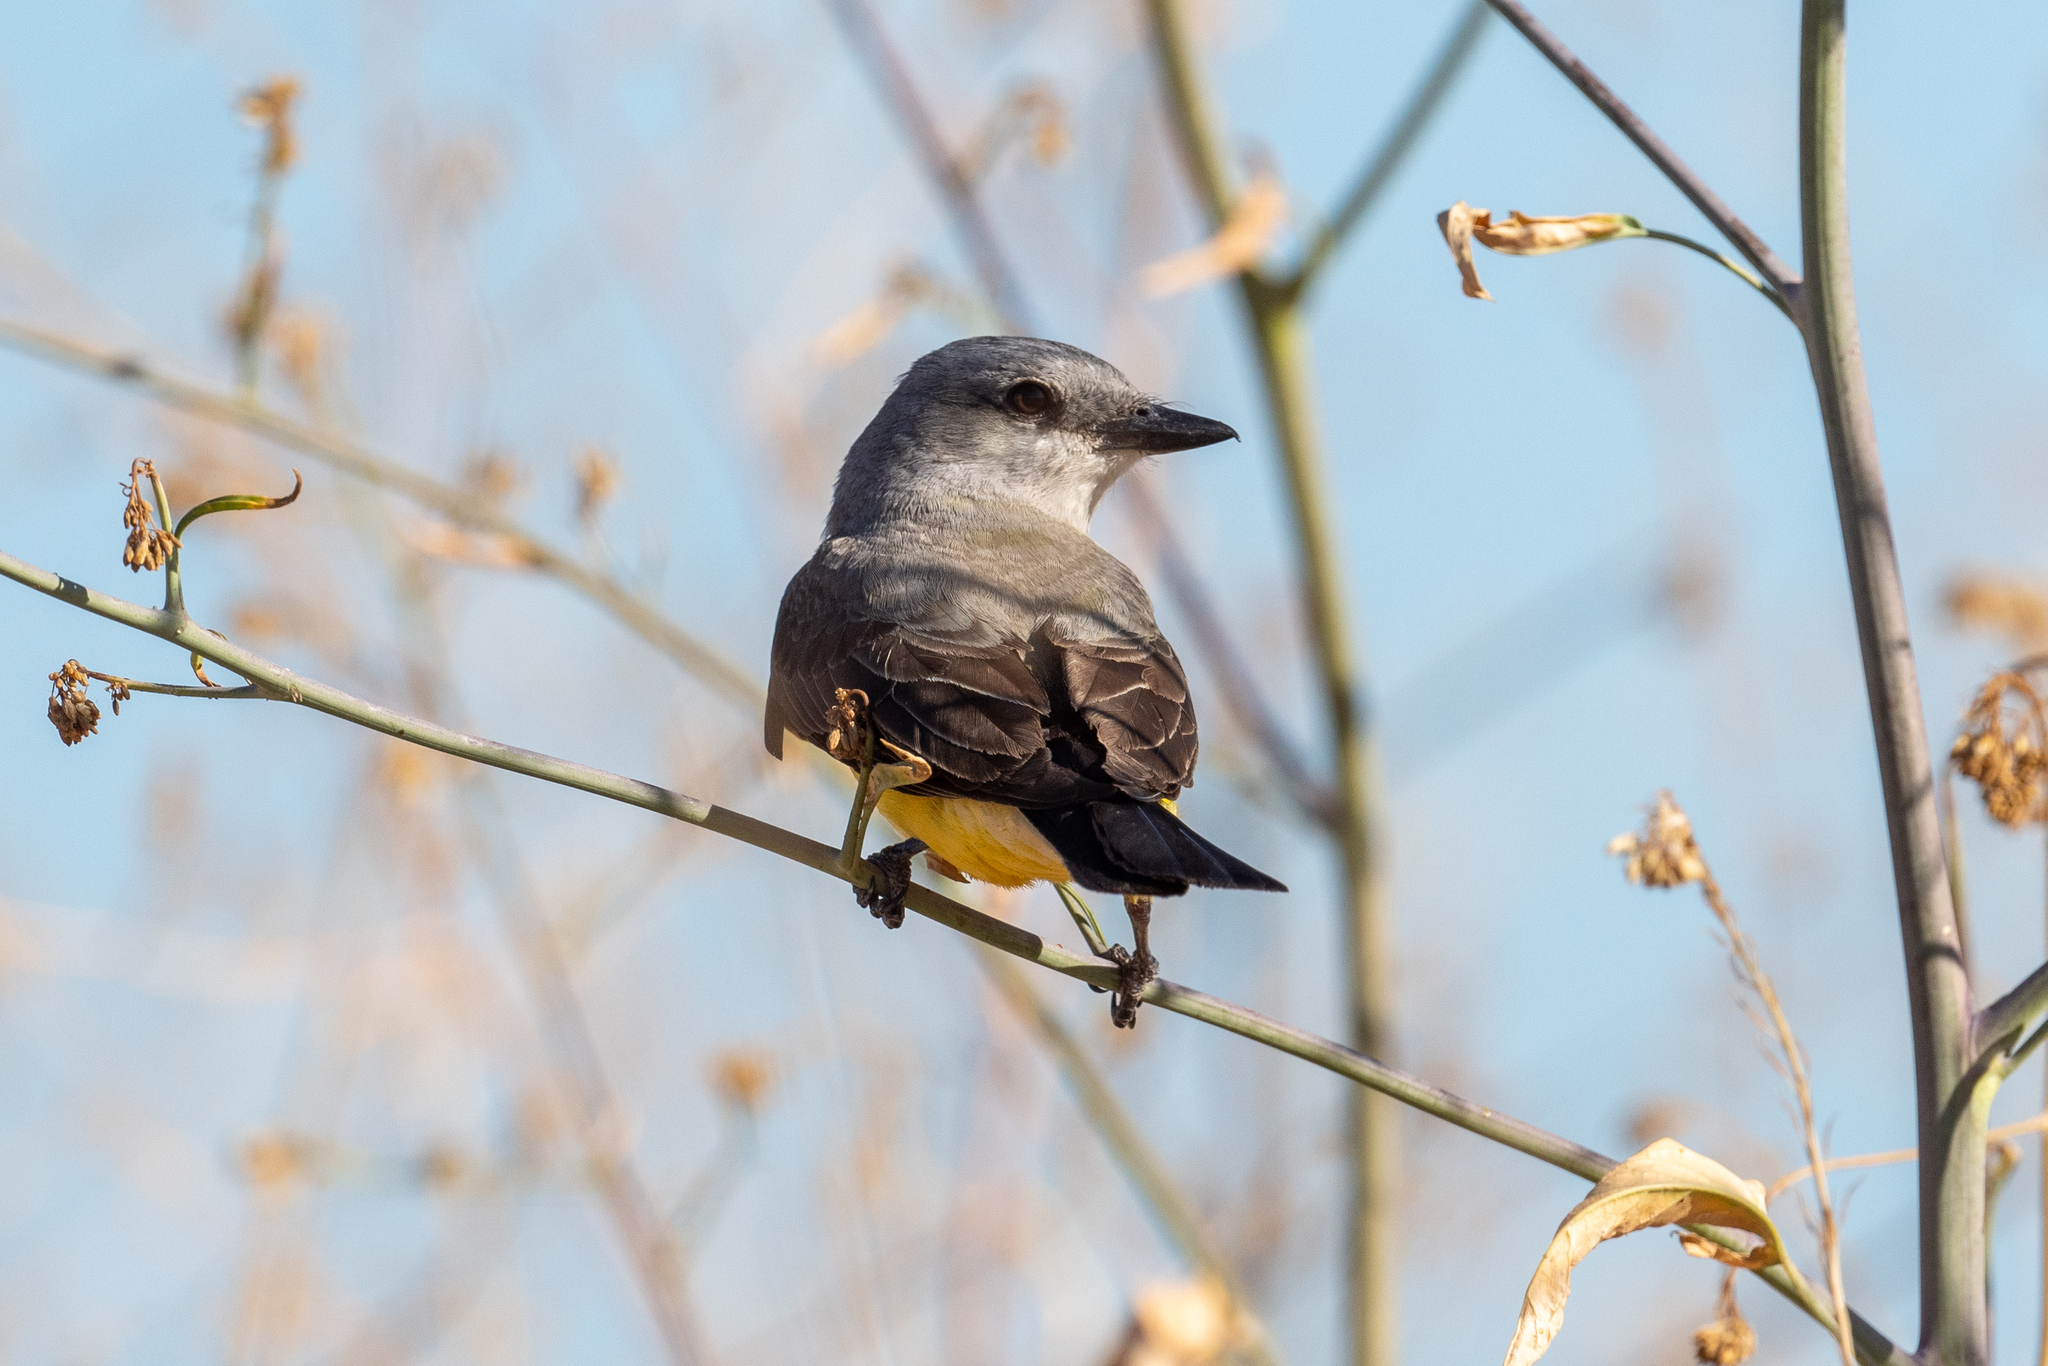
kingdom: Animalia
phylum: Chordata
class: Aves
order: Passeriformes
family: Tyrannidae
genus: Tyrannus
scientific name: Tyrannus verticalis
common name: Western kingbird
